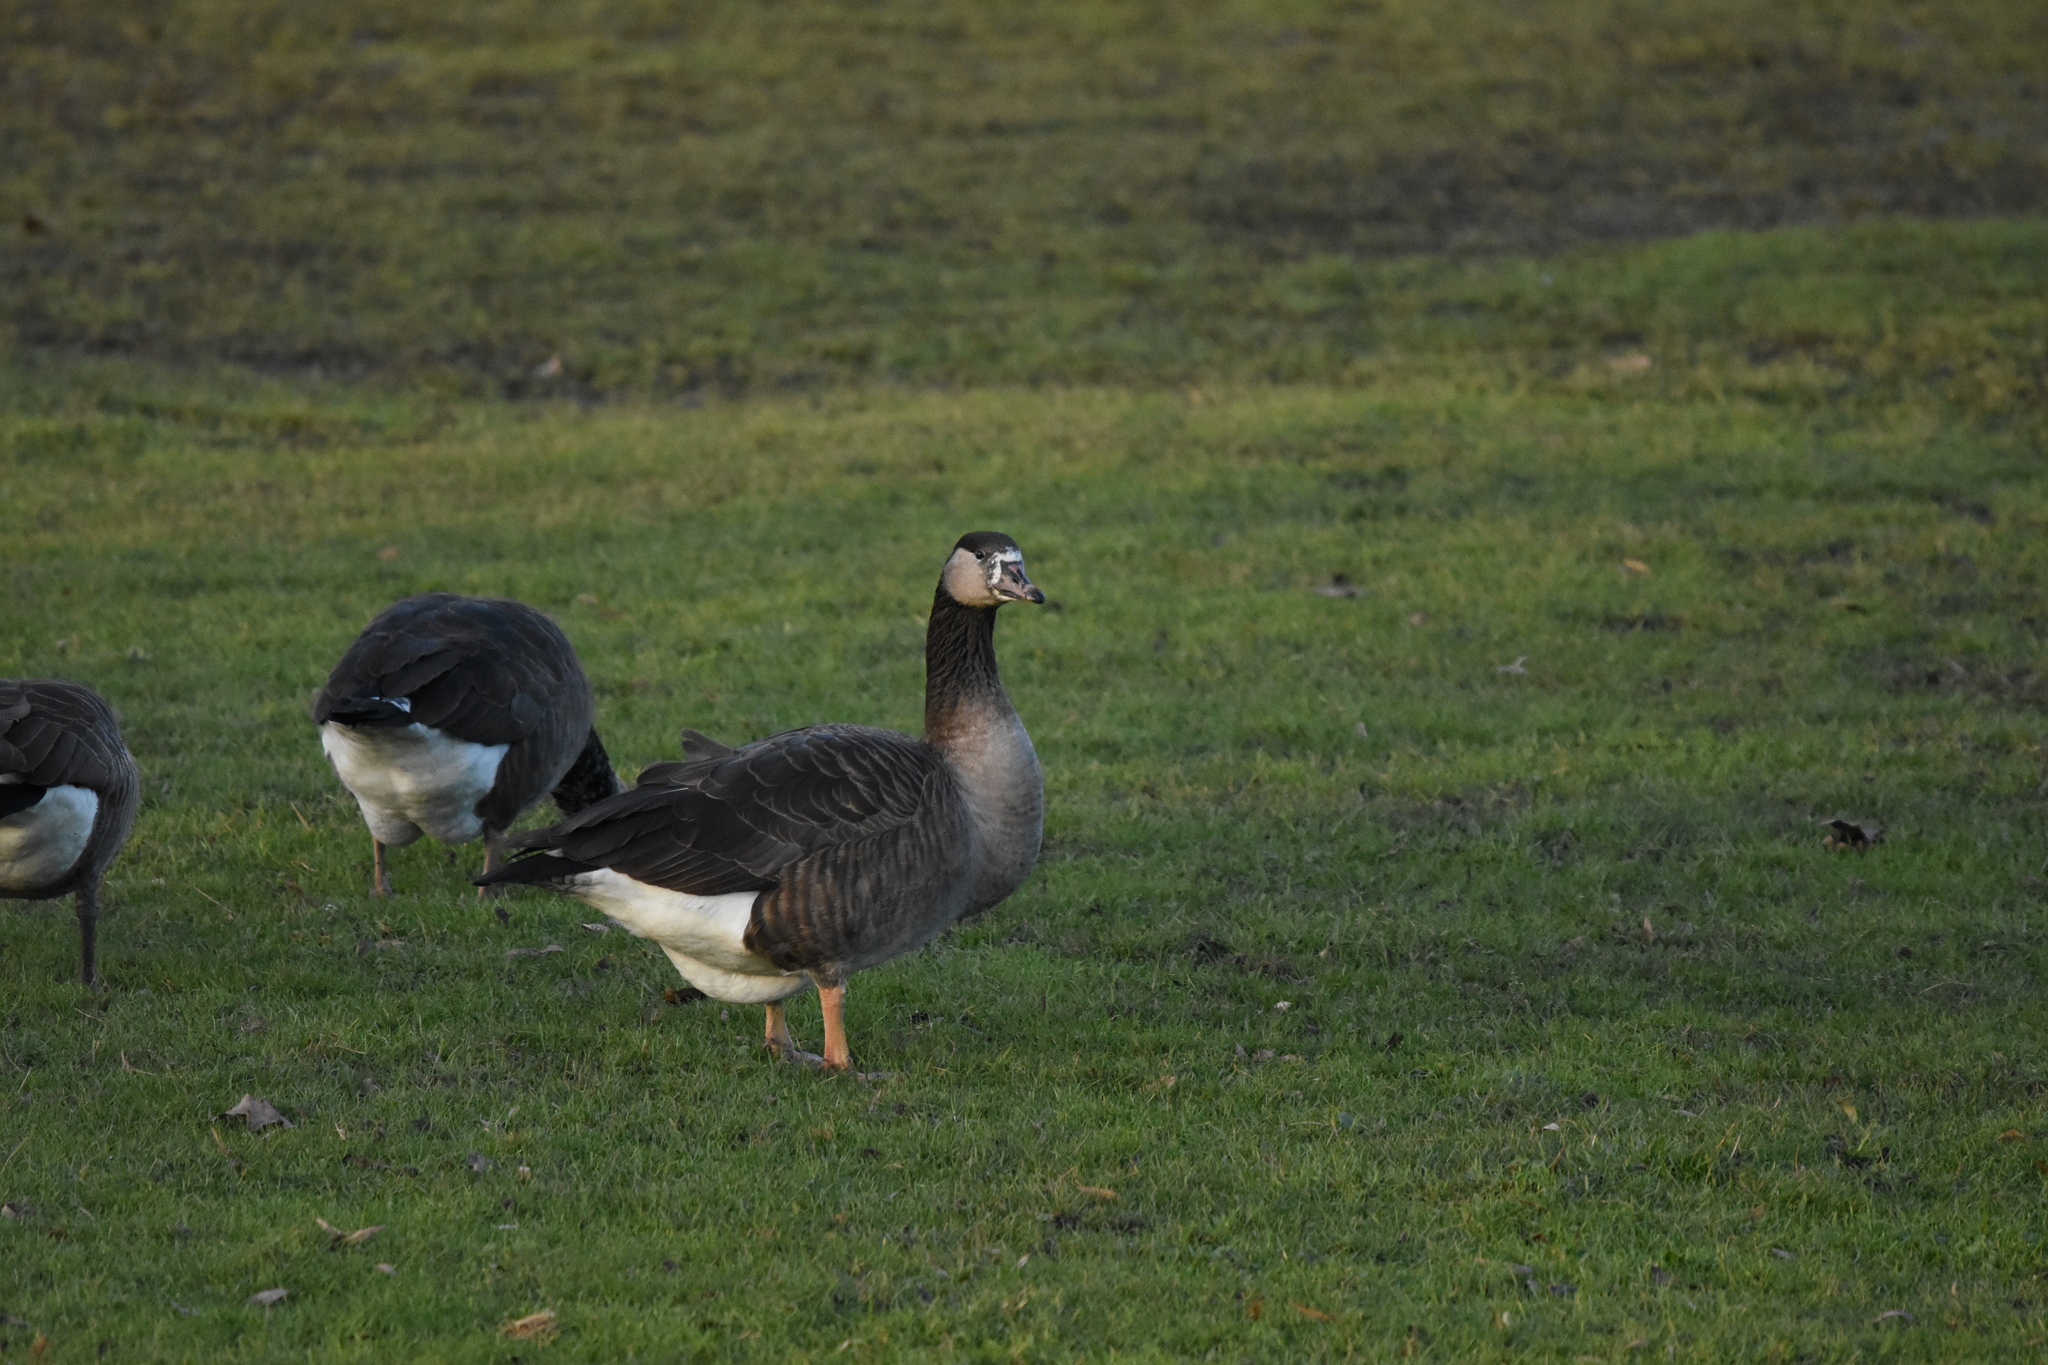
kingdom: Animalia
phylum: Chordata
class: Aves
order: Anseriformes
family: Anatidae
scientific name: Anatidae
